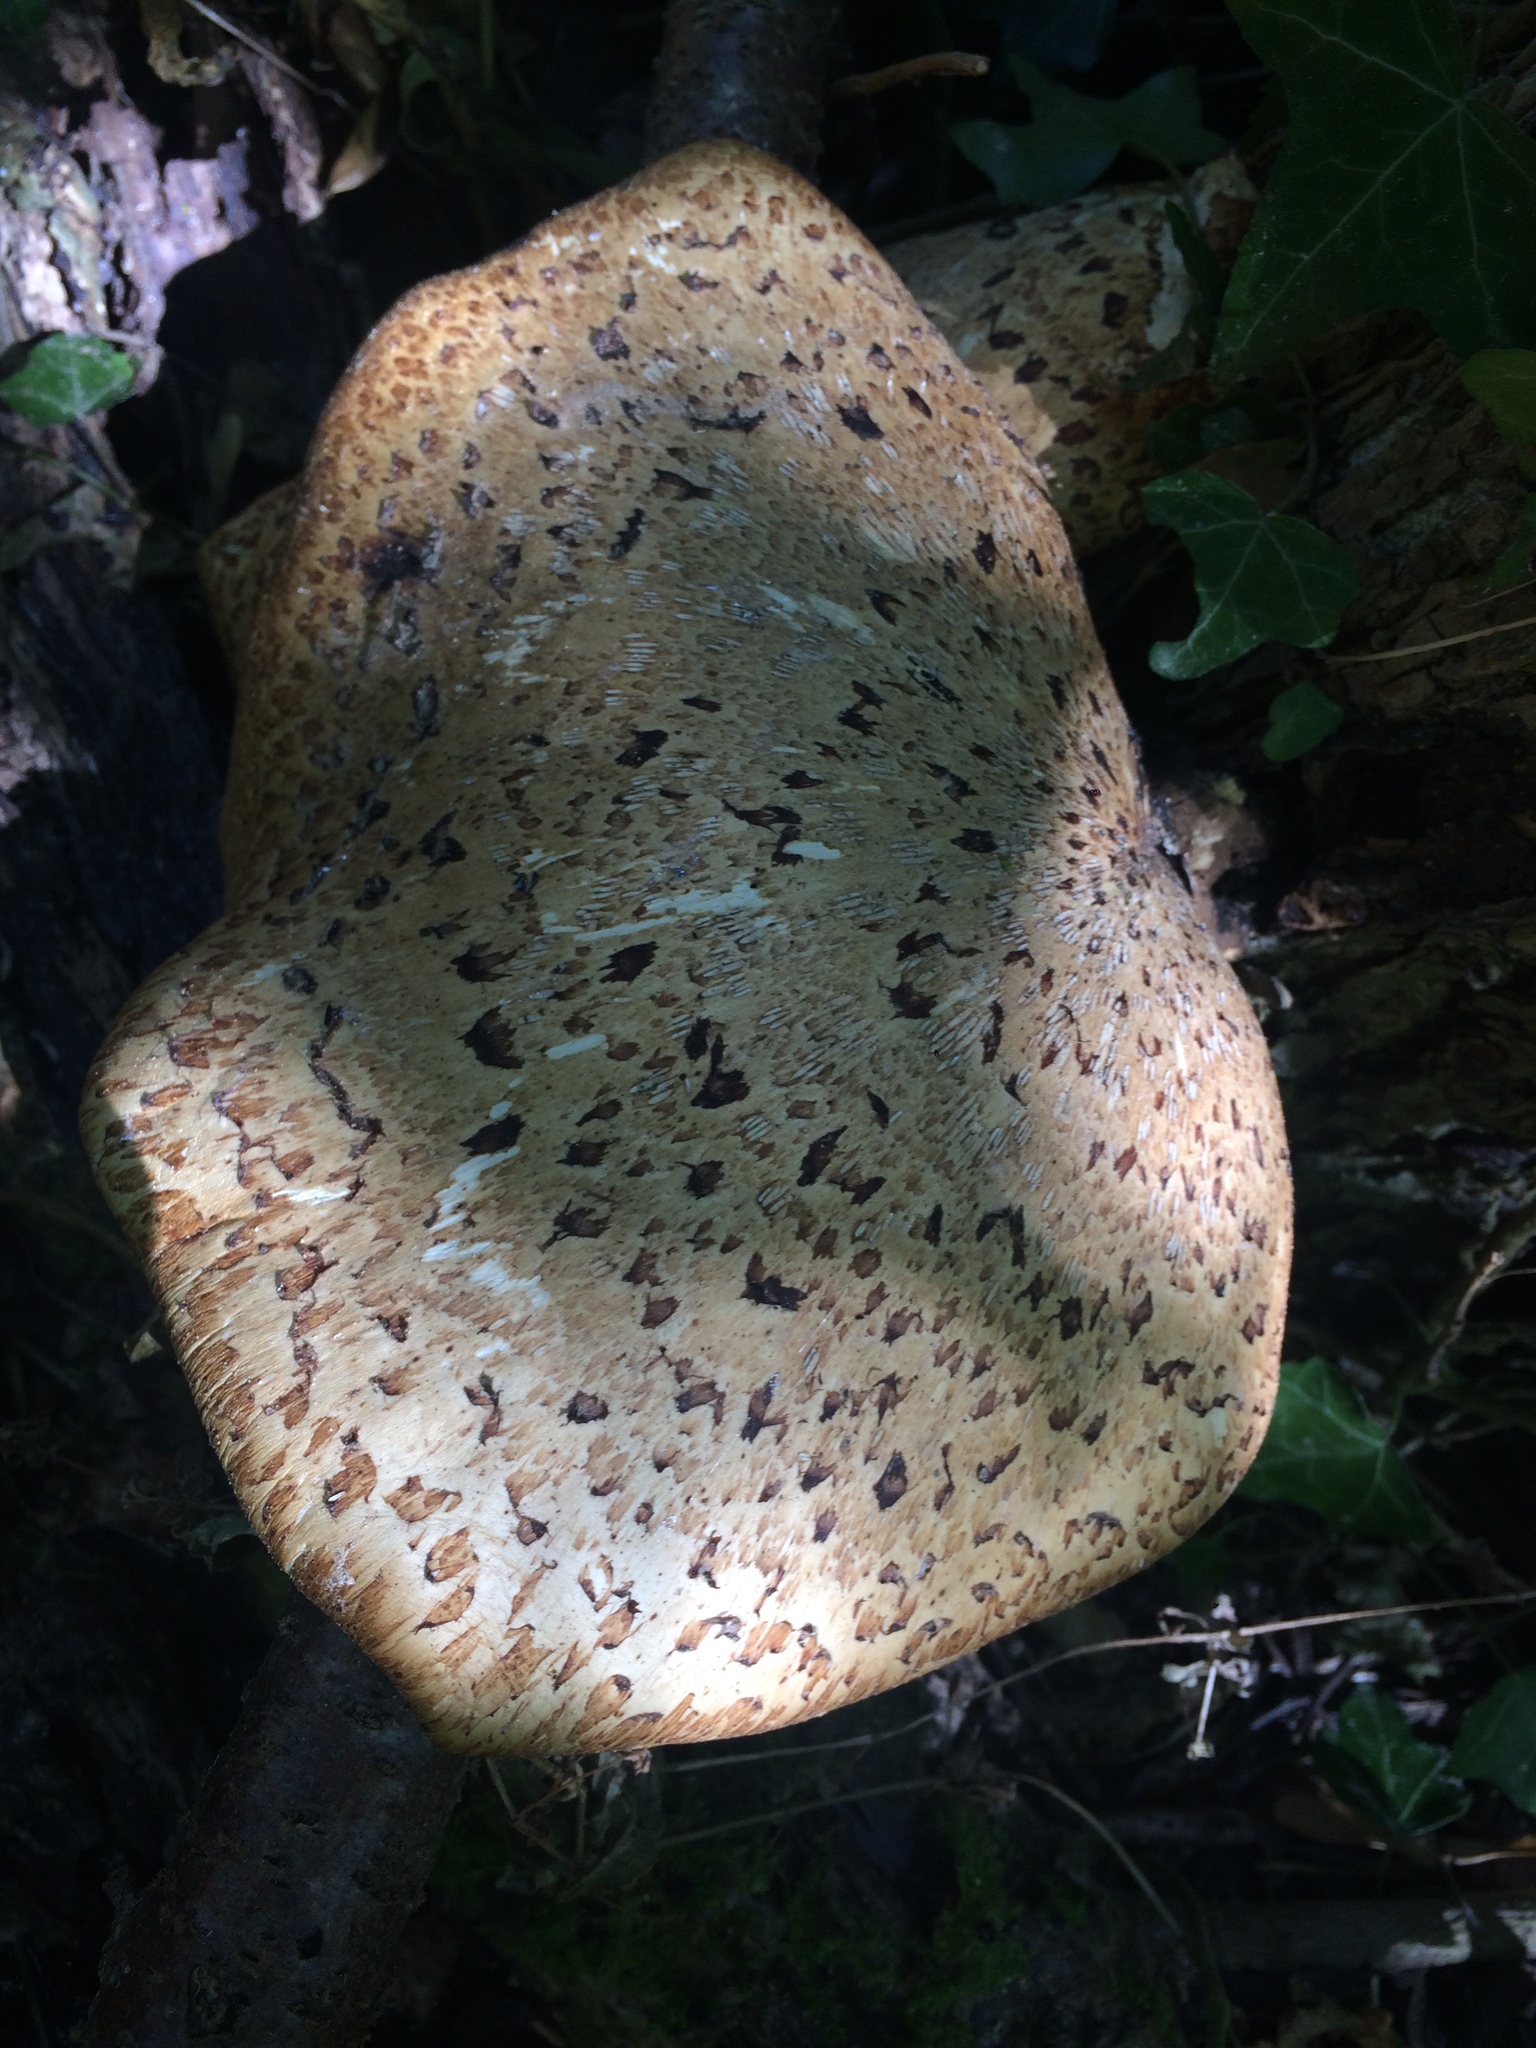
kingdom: Fungi
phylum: Basidiomycota
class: Agaricomycetes
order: Polyporales
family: Polyporaceae
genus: Cerioporus
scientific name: Cerioporus squamosus
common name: Dryad's saddle
